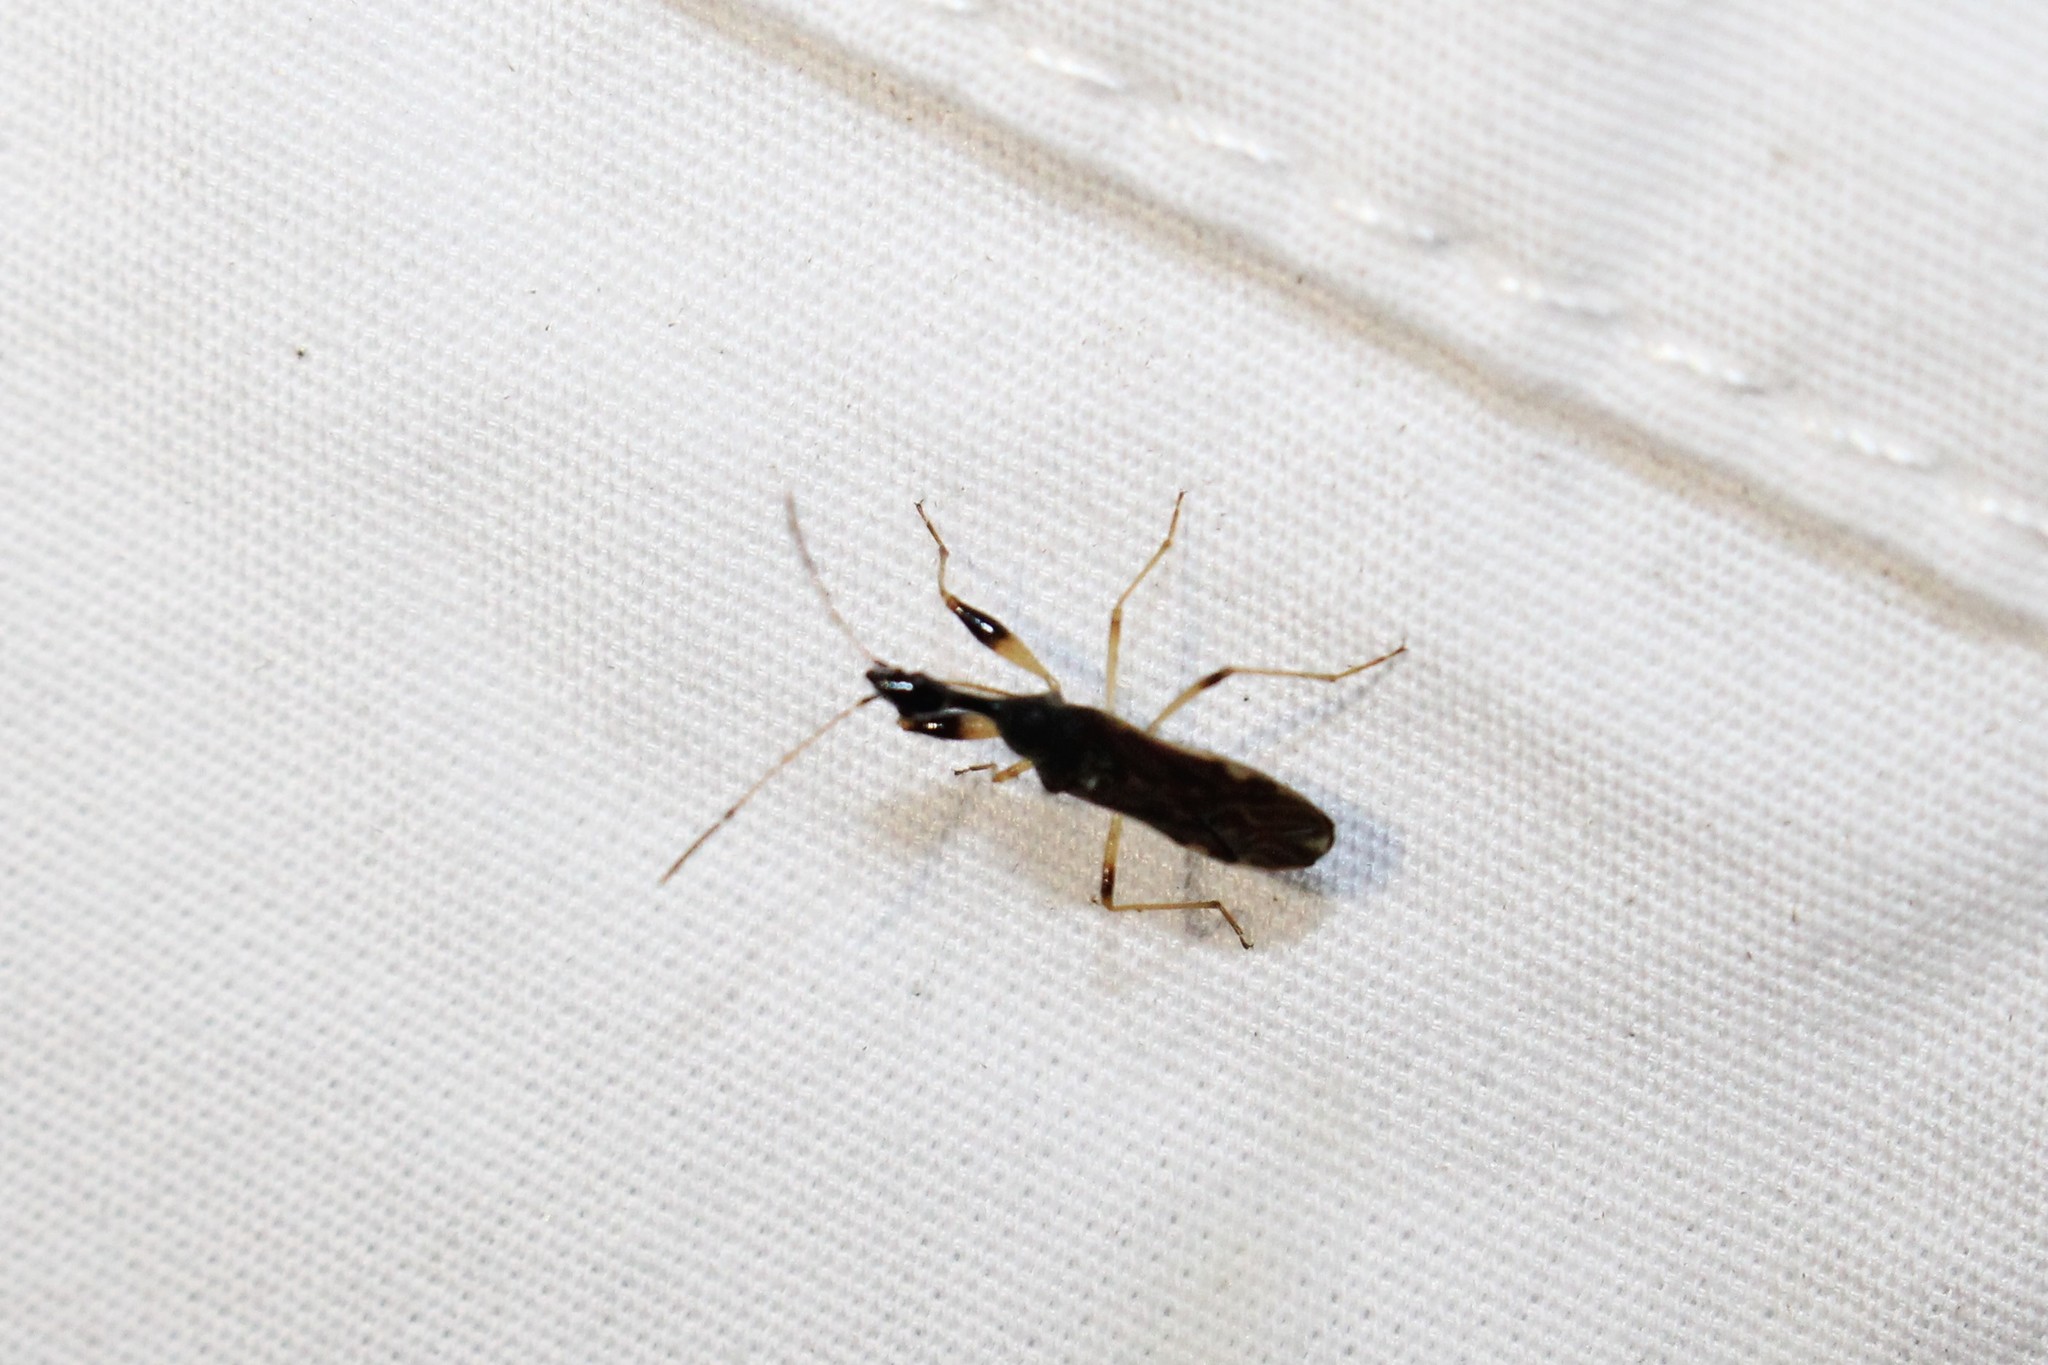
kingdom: Animalia
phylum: Arthropoda
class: Insecta
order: Hemiptera
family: Rhyparochromidae
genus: Myodocha
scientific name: Myodocha serripes
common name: Long-necked seed bug
